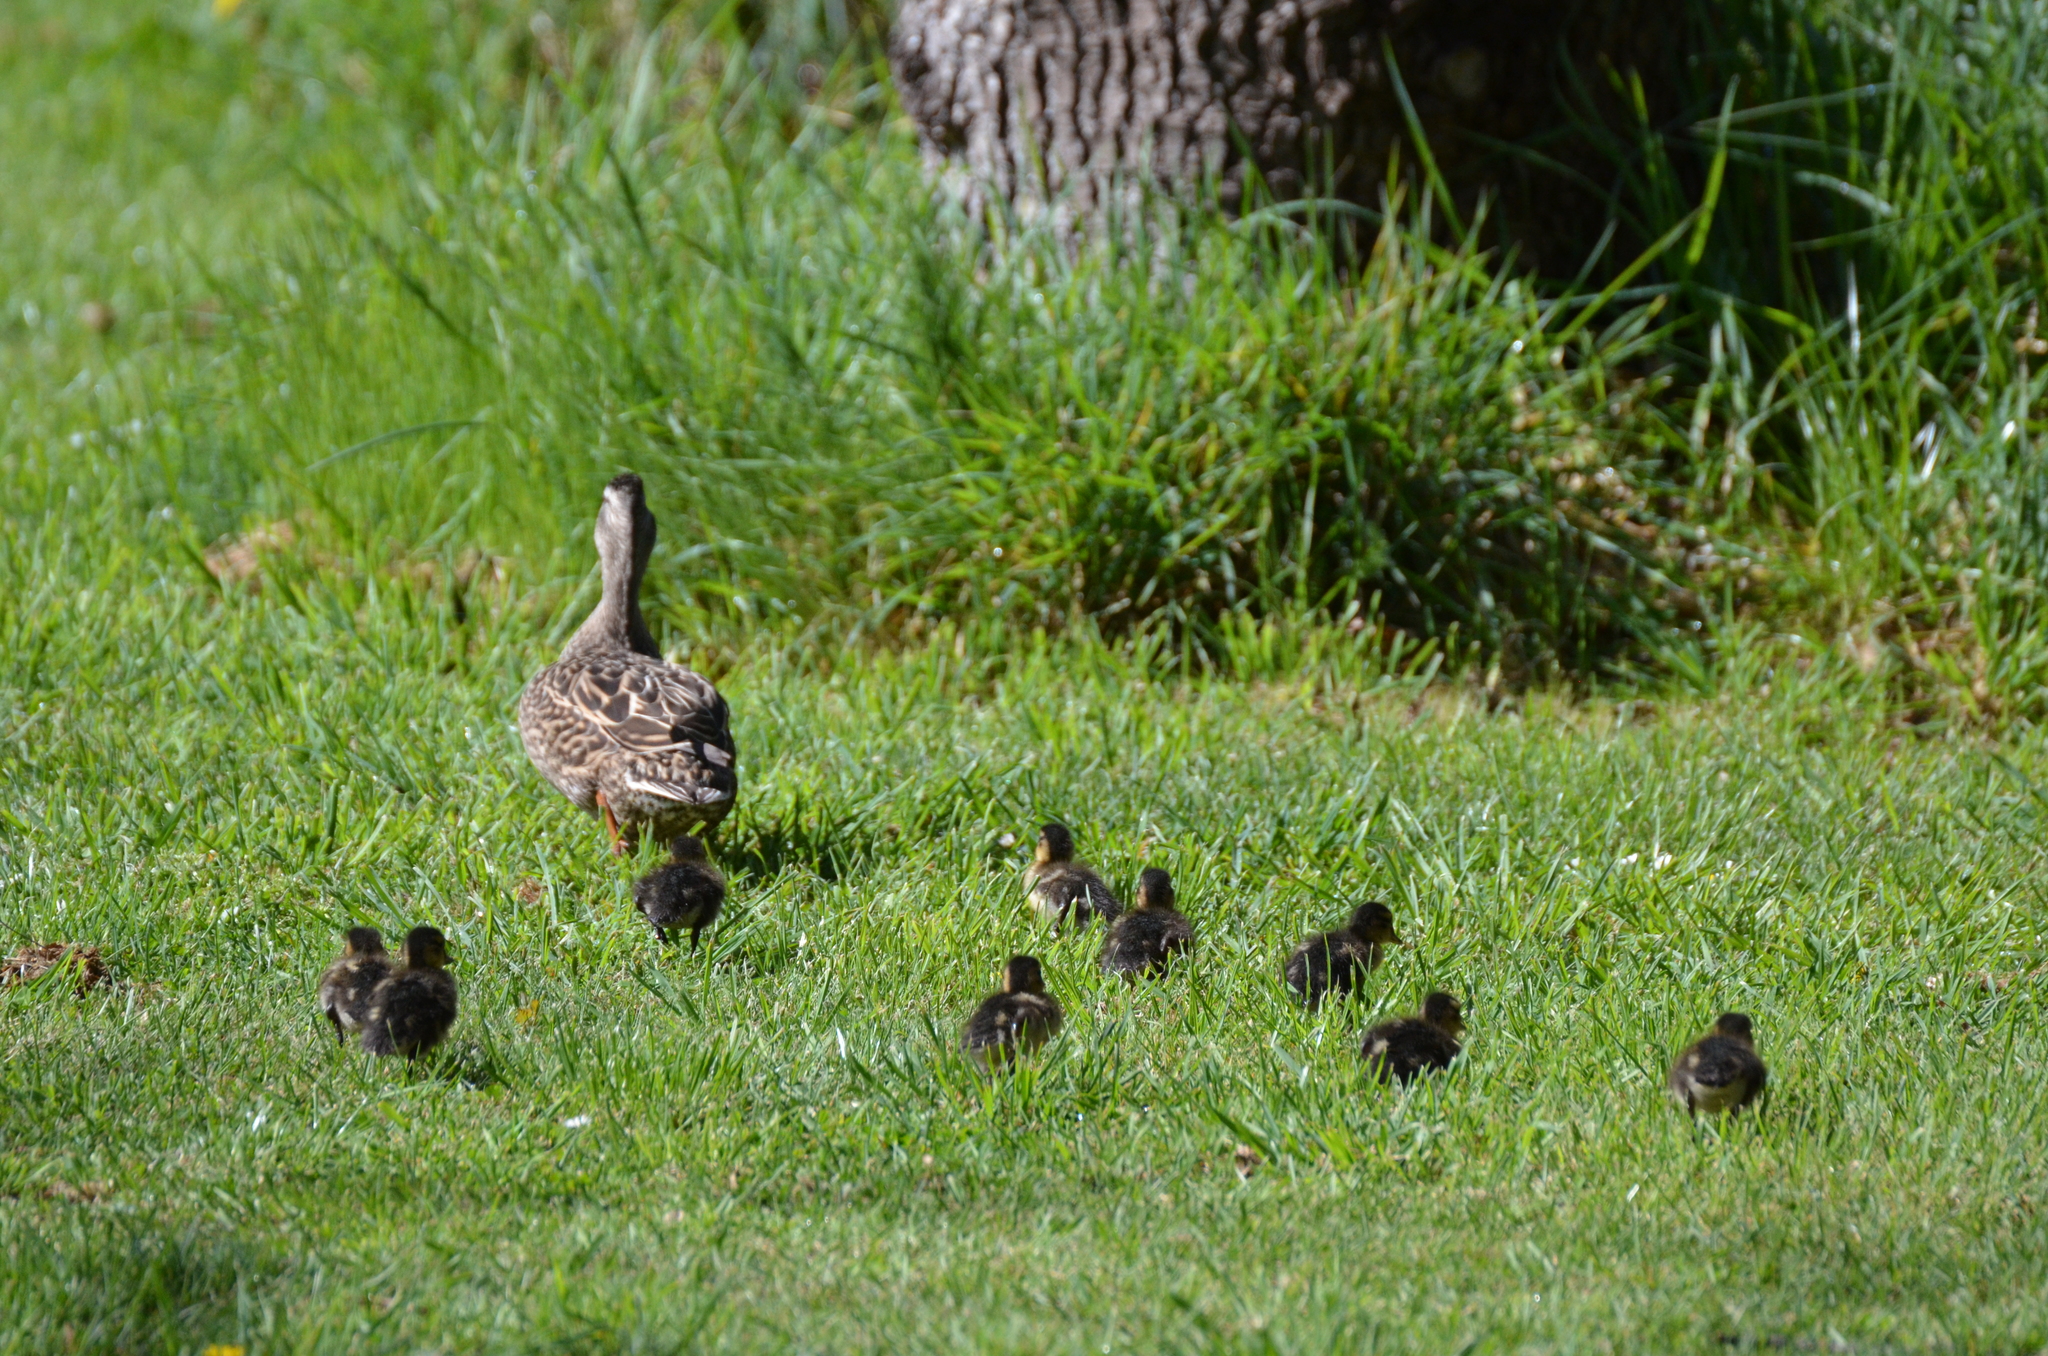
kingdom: Animalia
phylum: Chordata
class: Aves
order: Anseriformes
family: Anatidae
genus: Anas
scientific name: Anas
